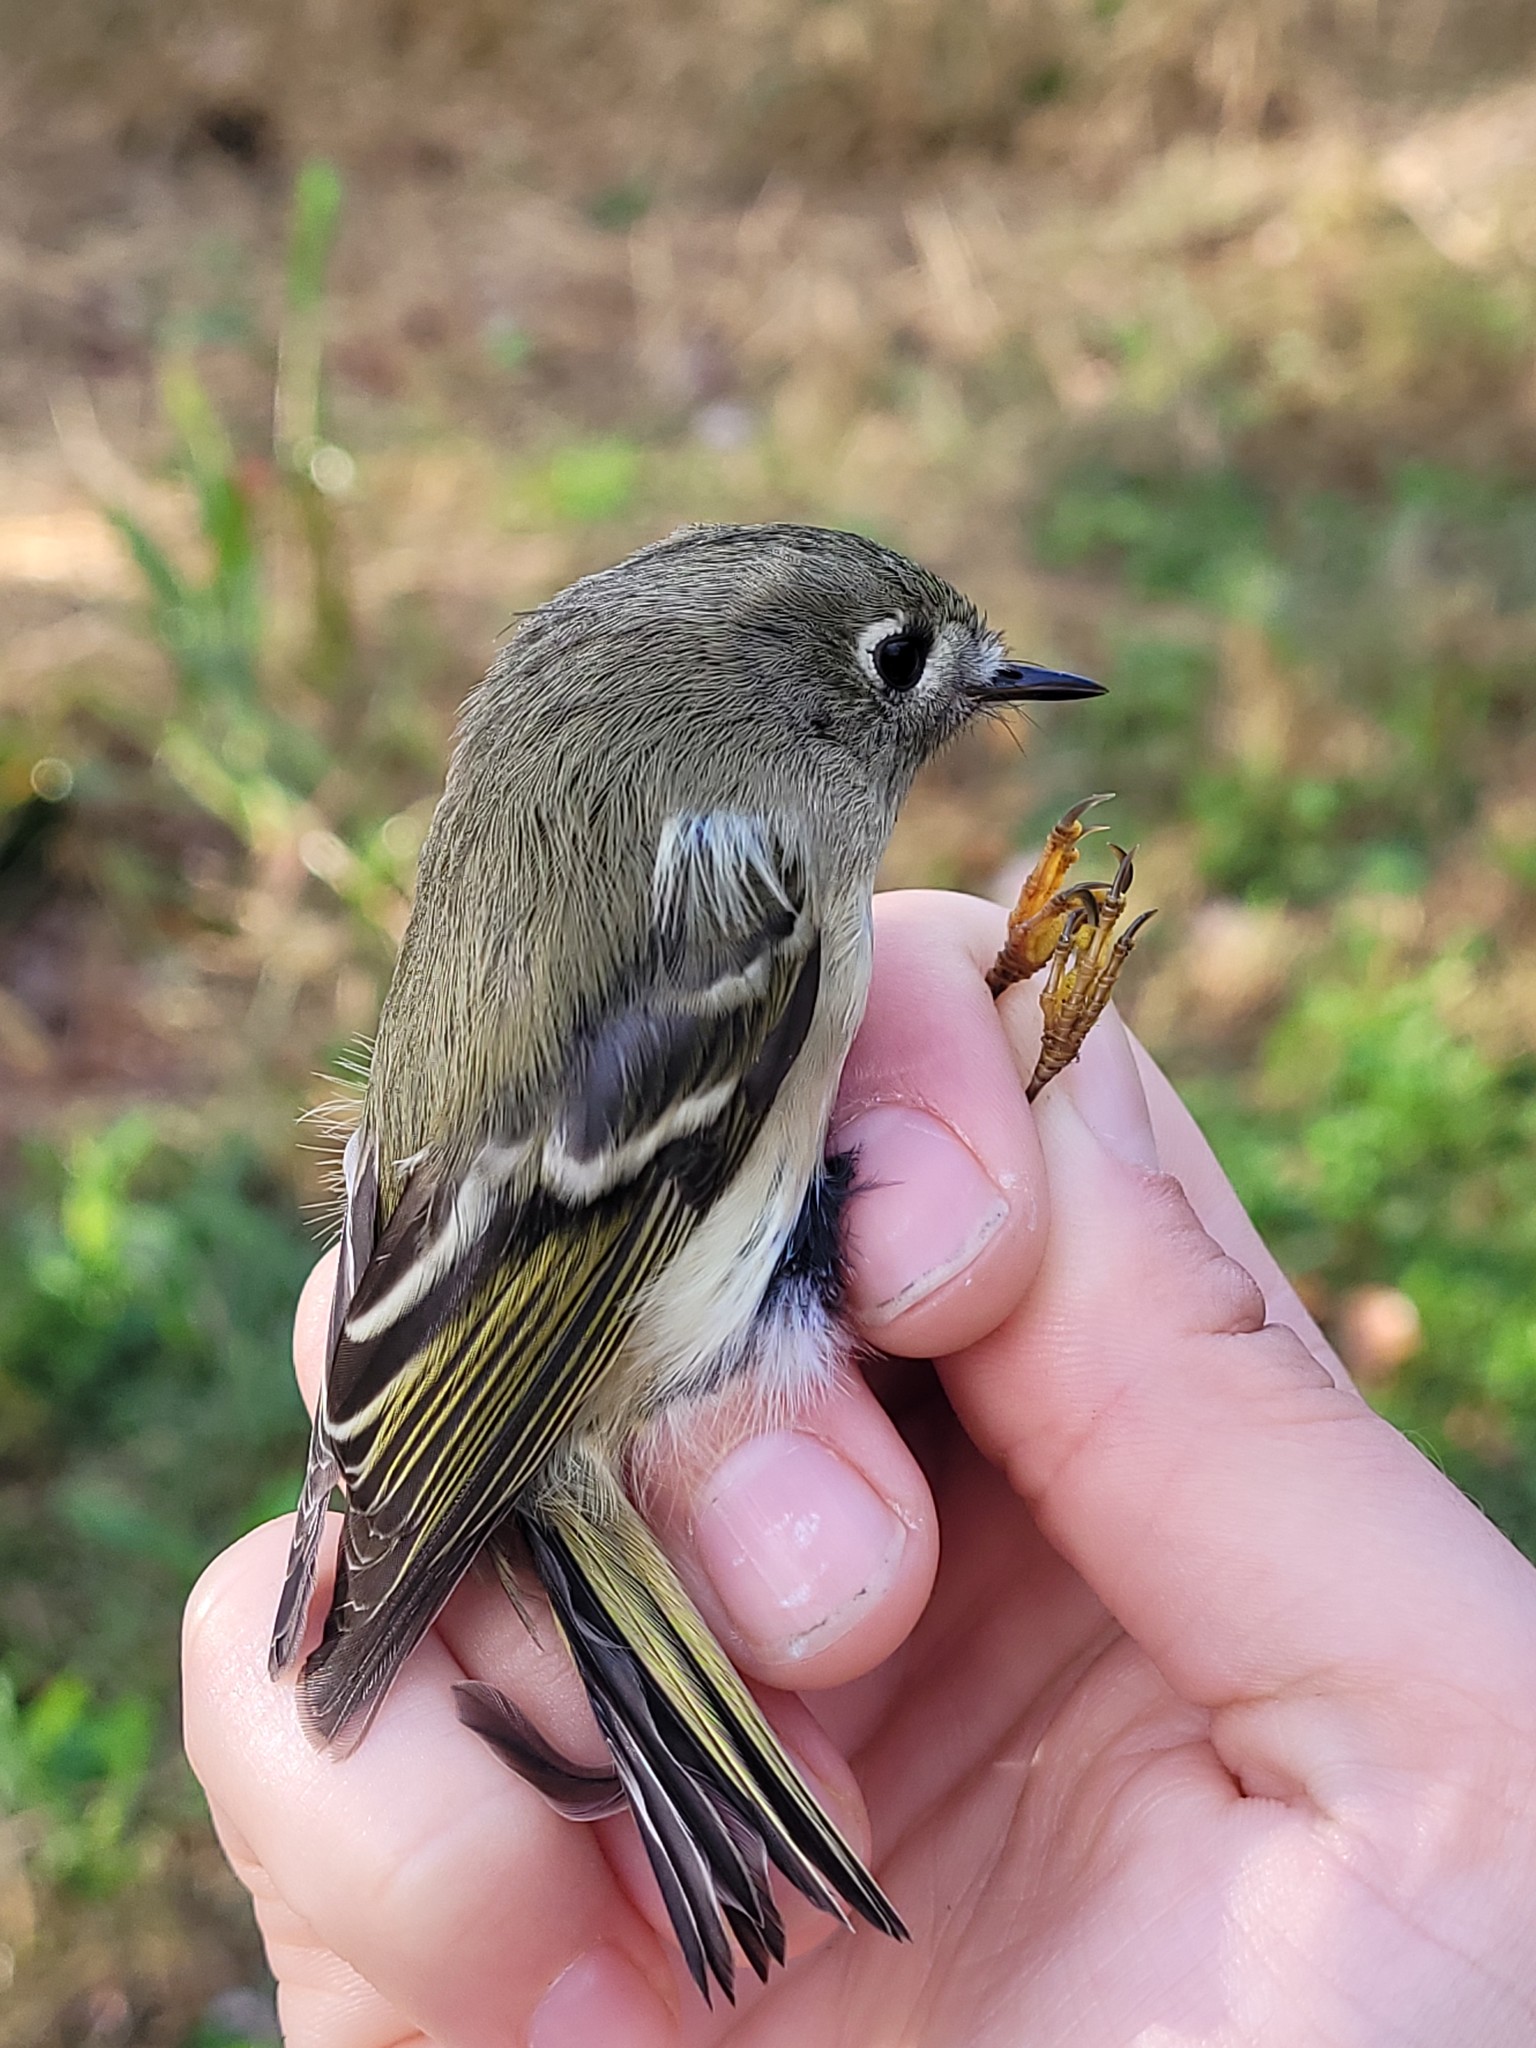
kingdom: Animalia
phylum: Chordata
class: Aves
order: Passeriformes
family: Regulidae
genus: Regulus
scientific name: Regulus calendula
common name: Ruby-crowned kinglet
